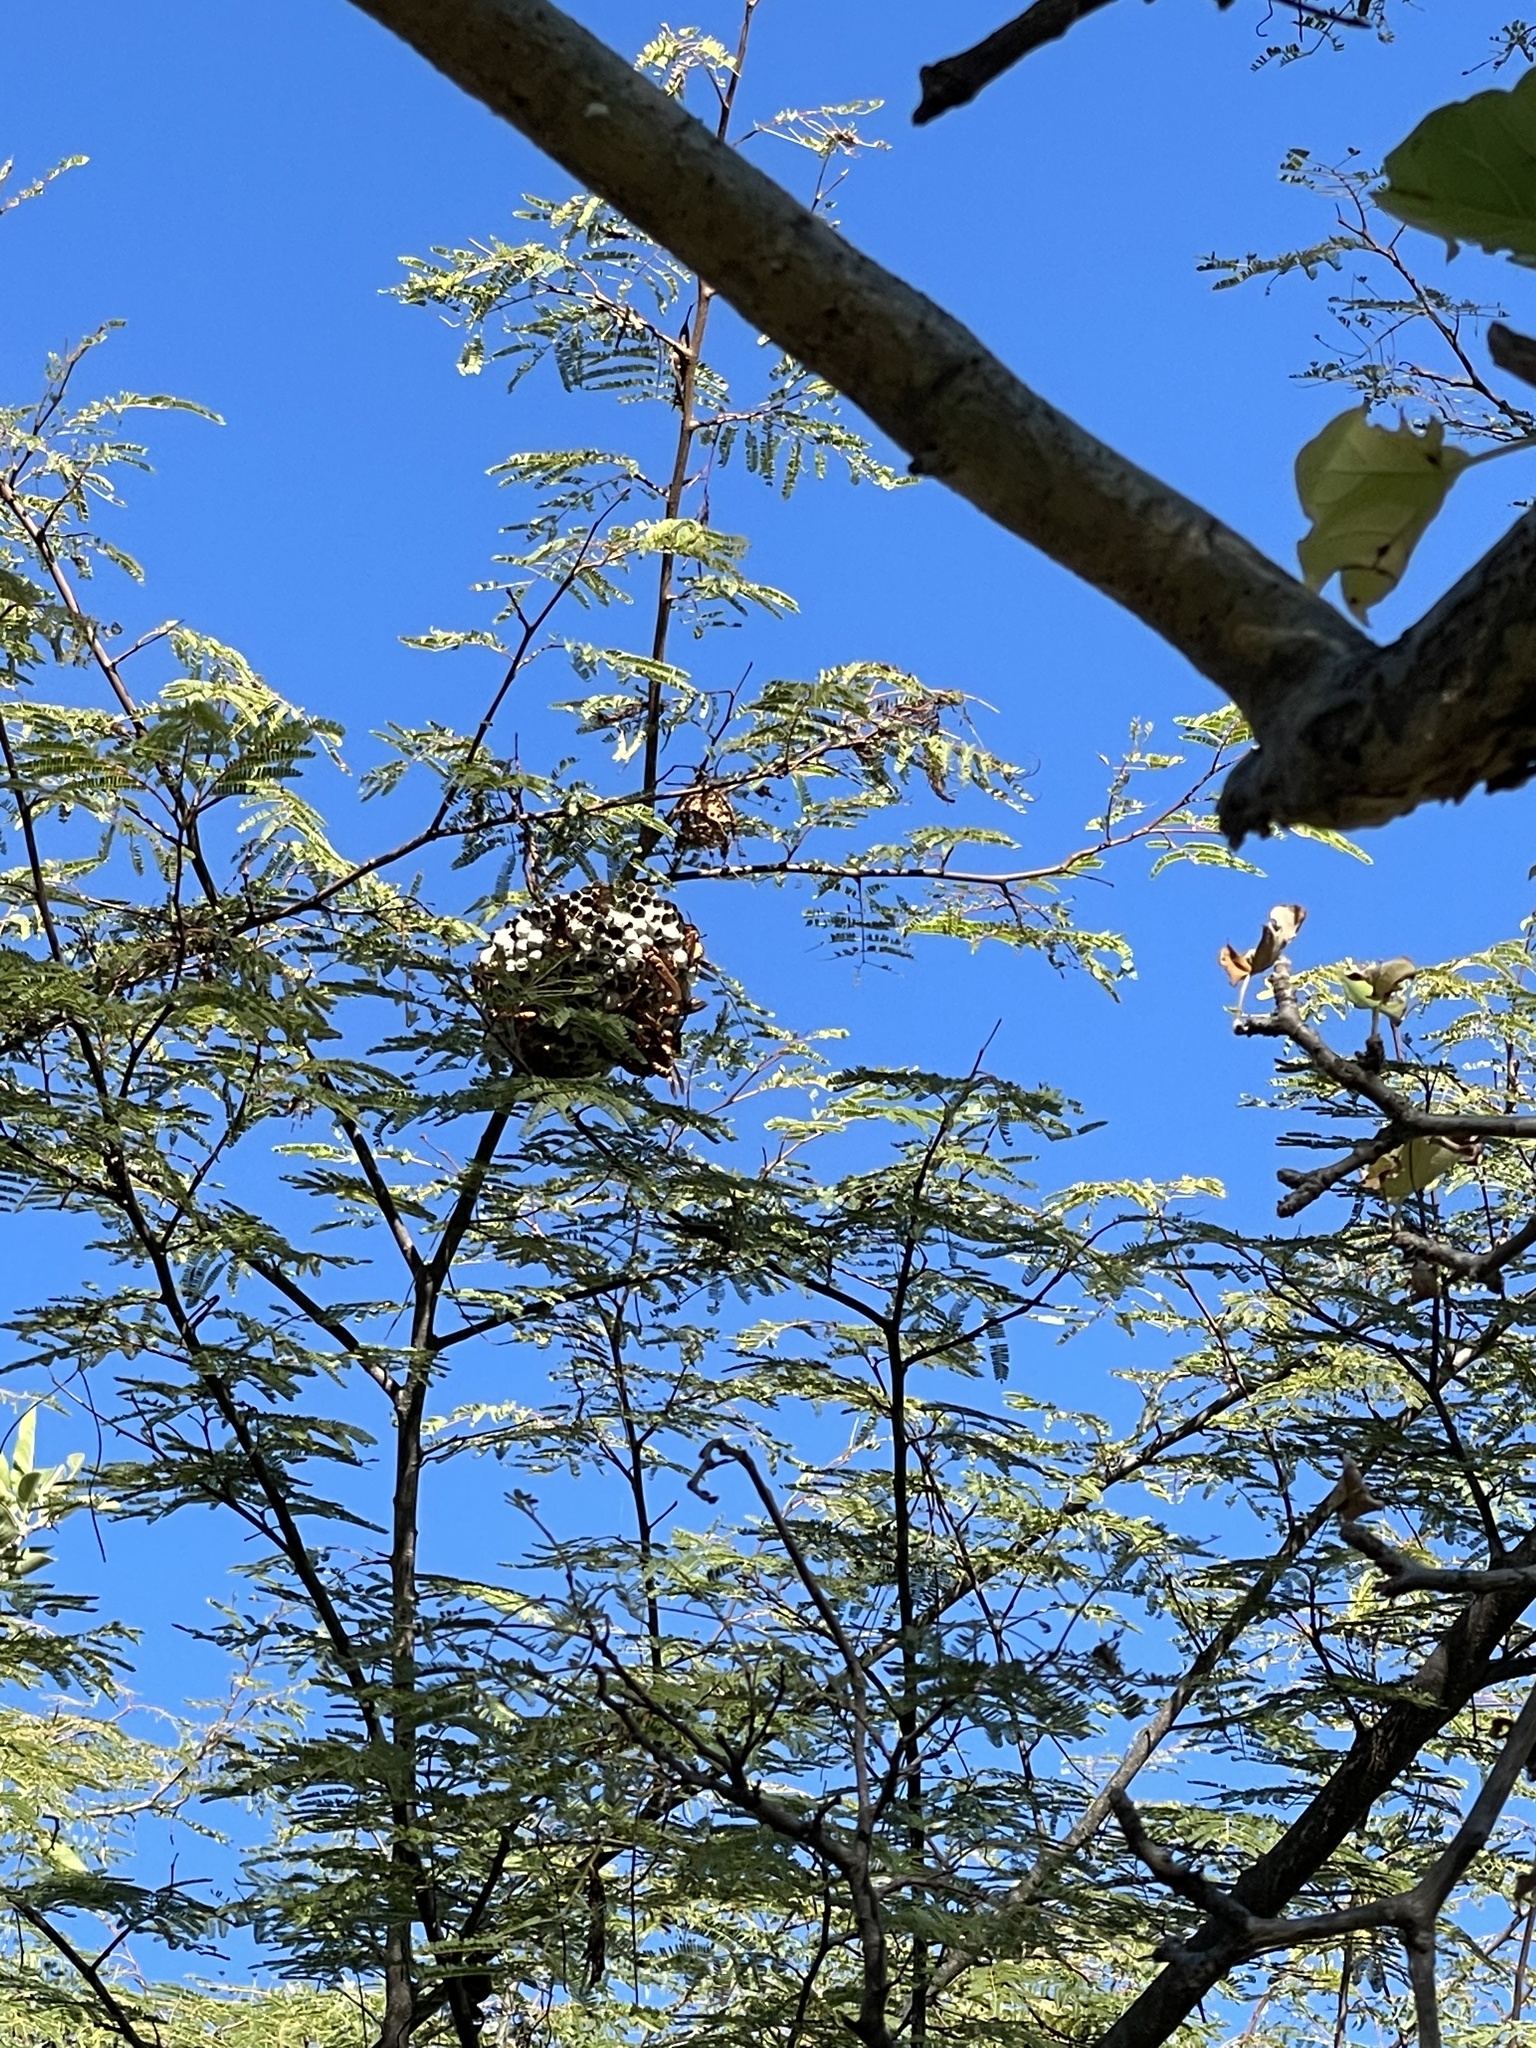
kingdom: Animalia
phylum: Arthropoda
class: Insecta
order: Hymenoptera
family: Eumenidae
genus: Polistes
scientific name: Polistes
